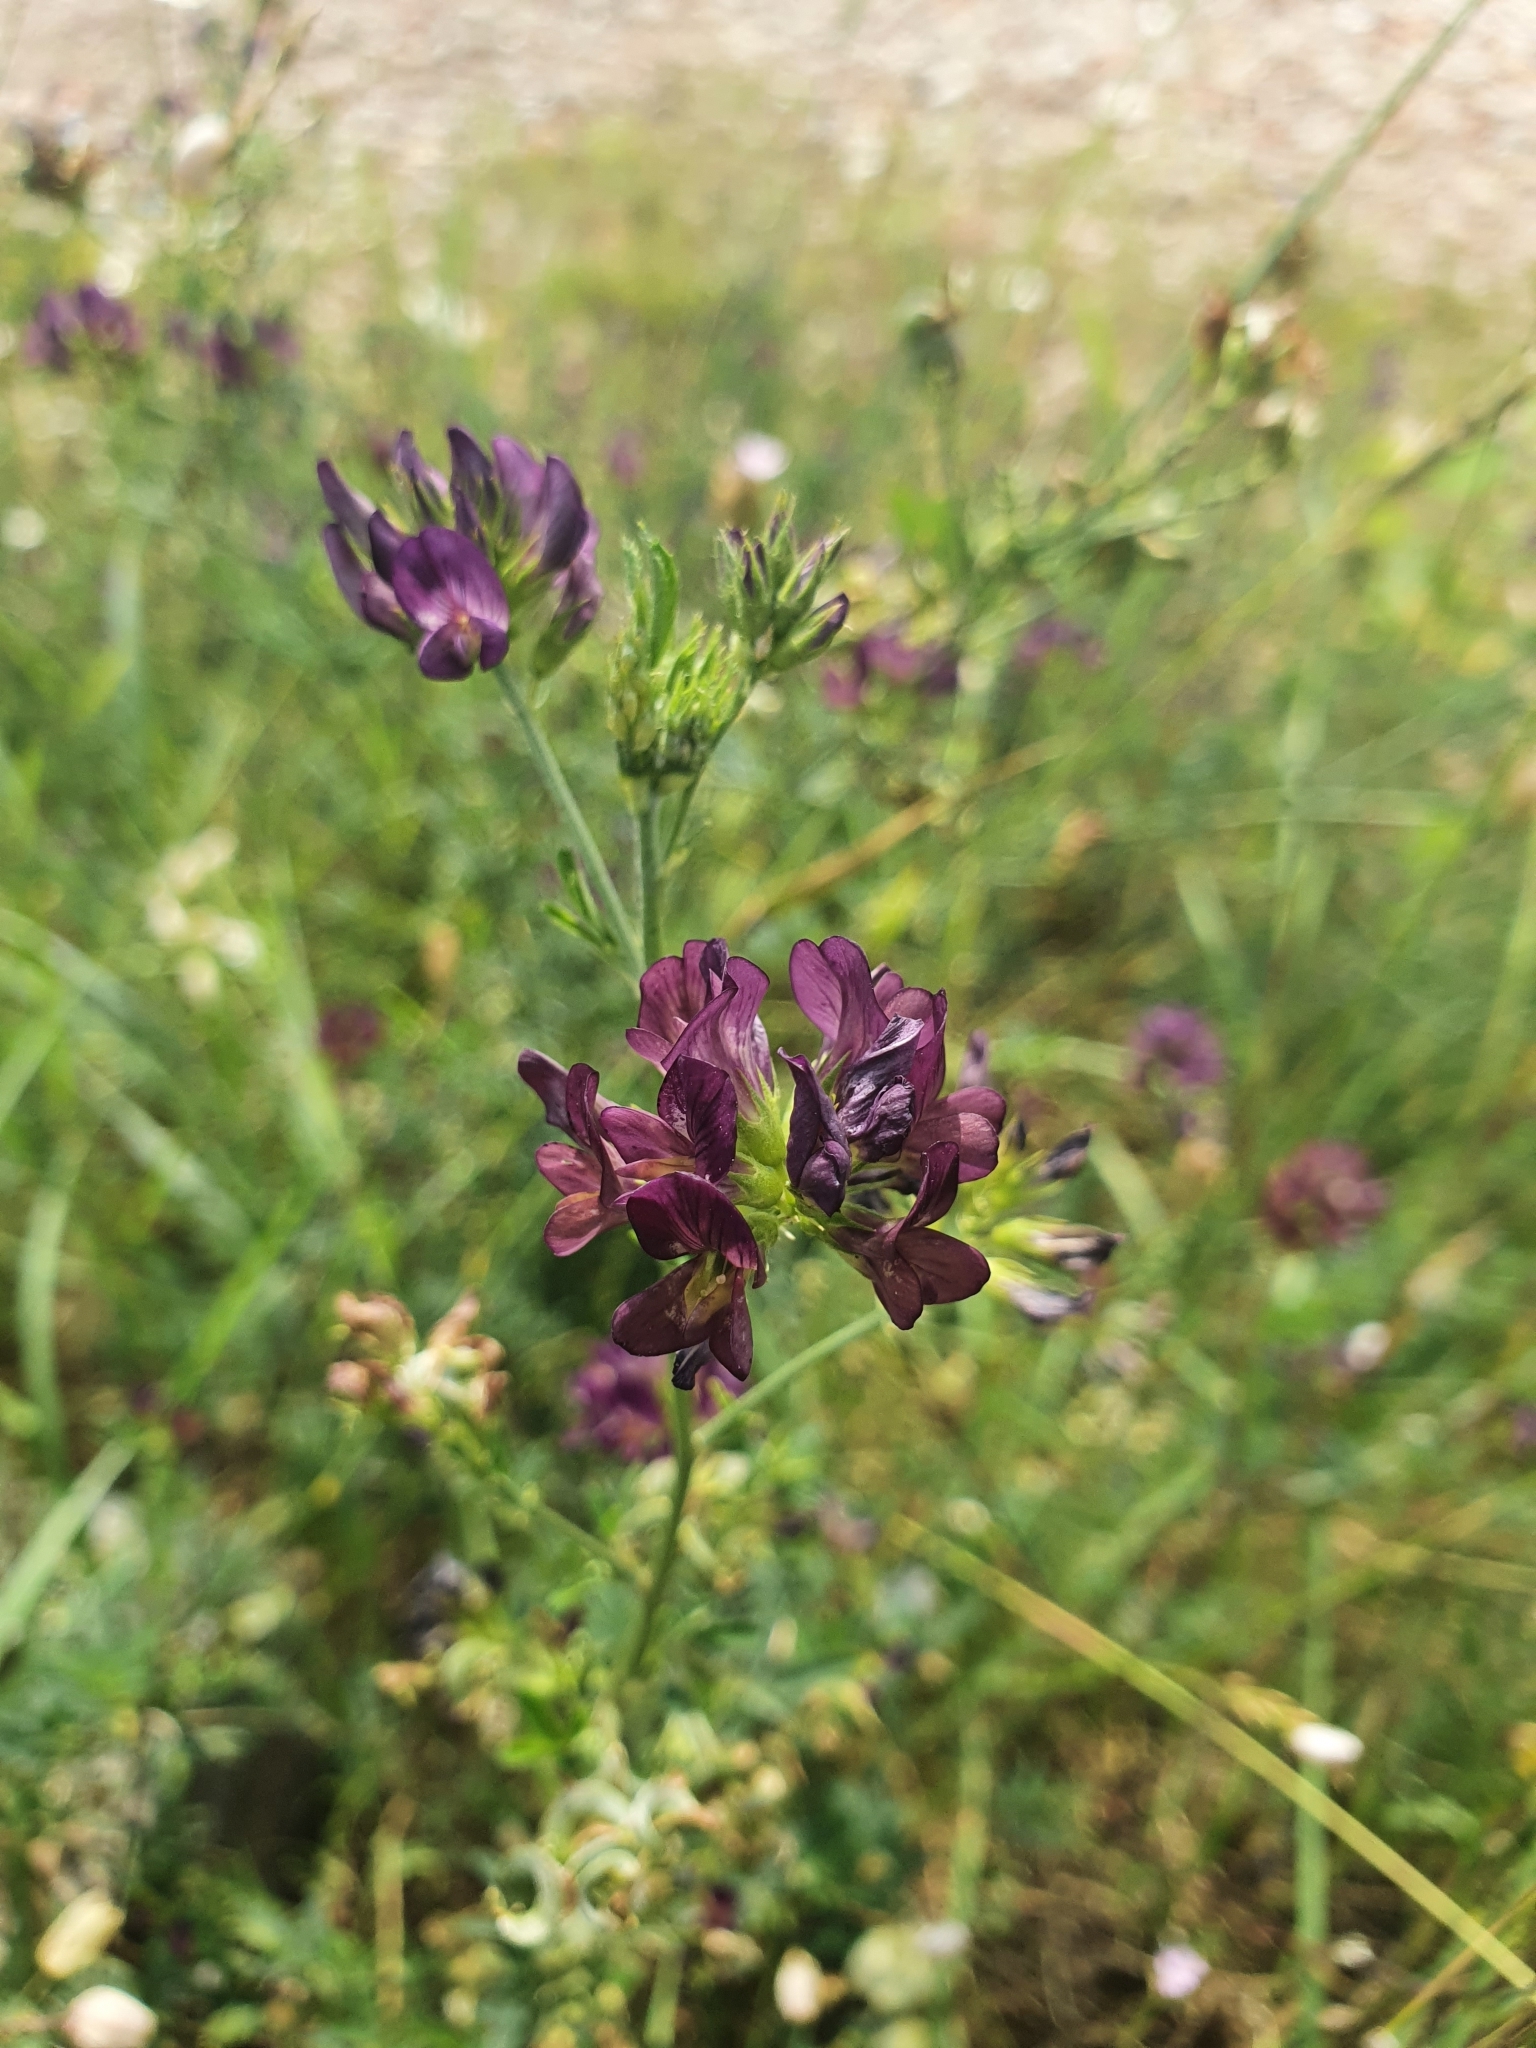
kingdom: Plantae
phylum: Tracheophyta
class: Magnoliopsida
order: Fabales
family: Fabaceae
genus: Medicago
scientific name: Medicago
